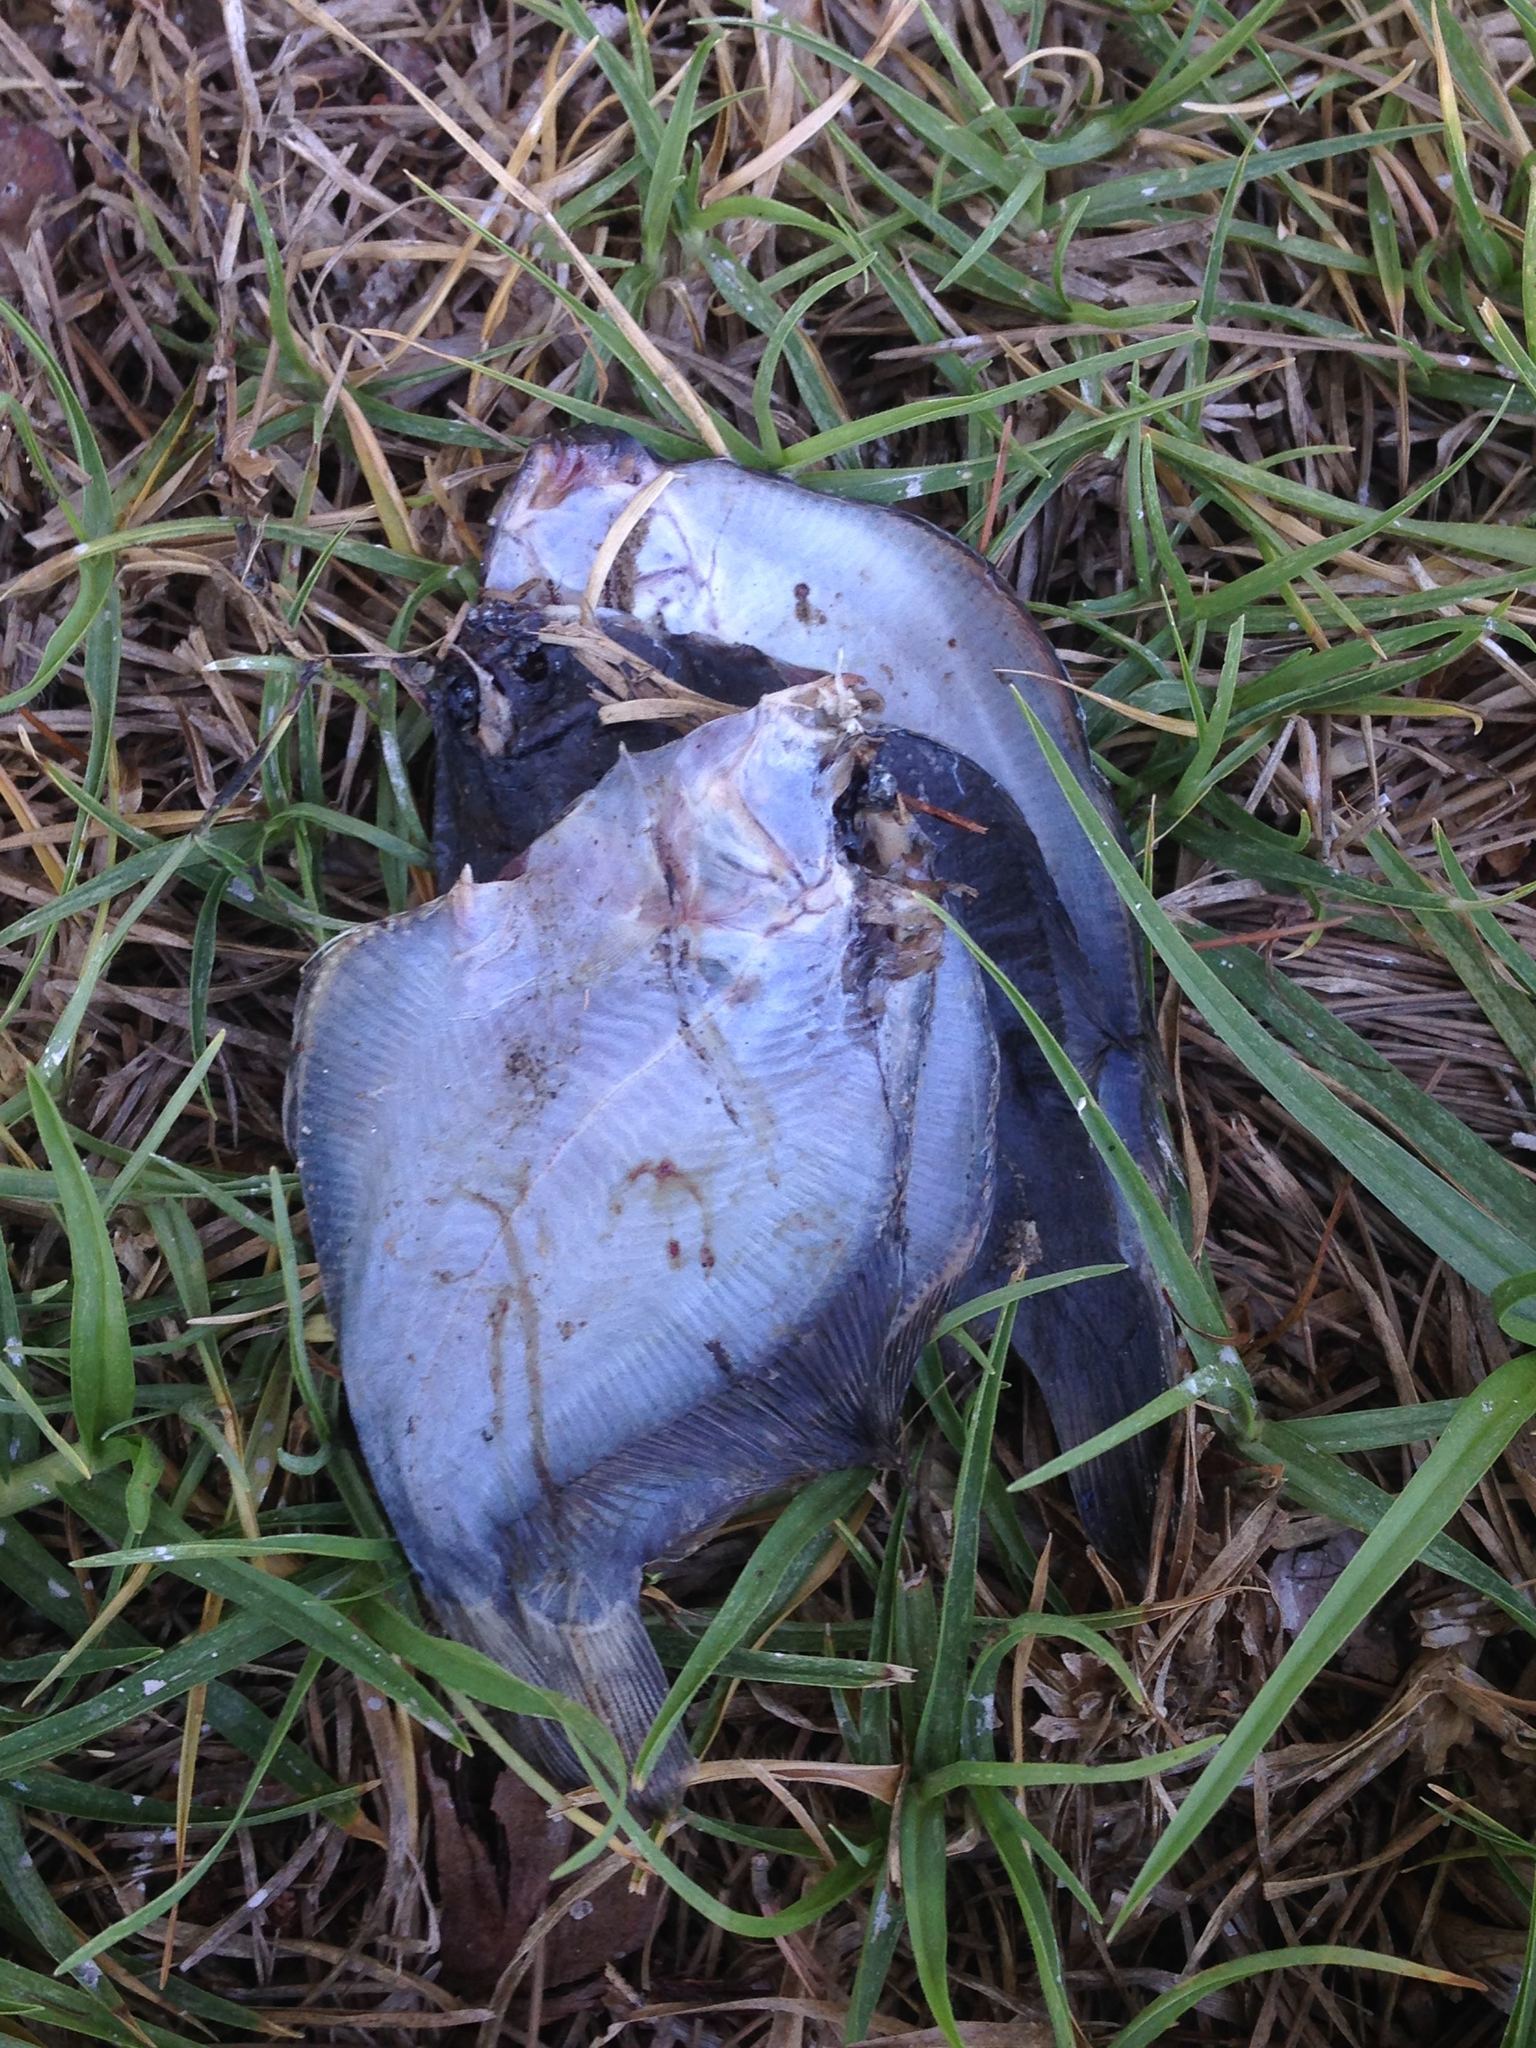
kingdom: Animalia
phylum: Chordata
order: Pleuronectiformes
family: Paralichthyidae
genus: Citharichthys
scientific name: Citharichthys sordidus
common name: Pacific sanddab
